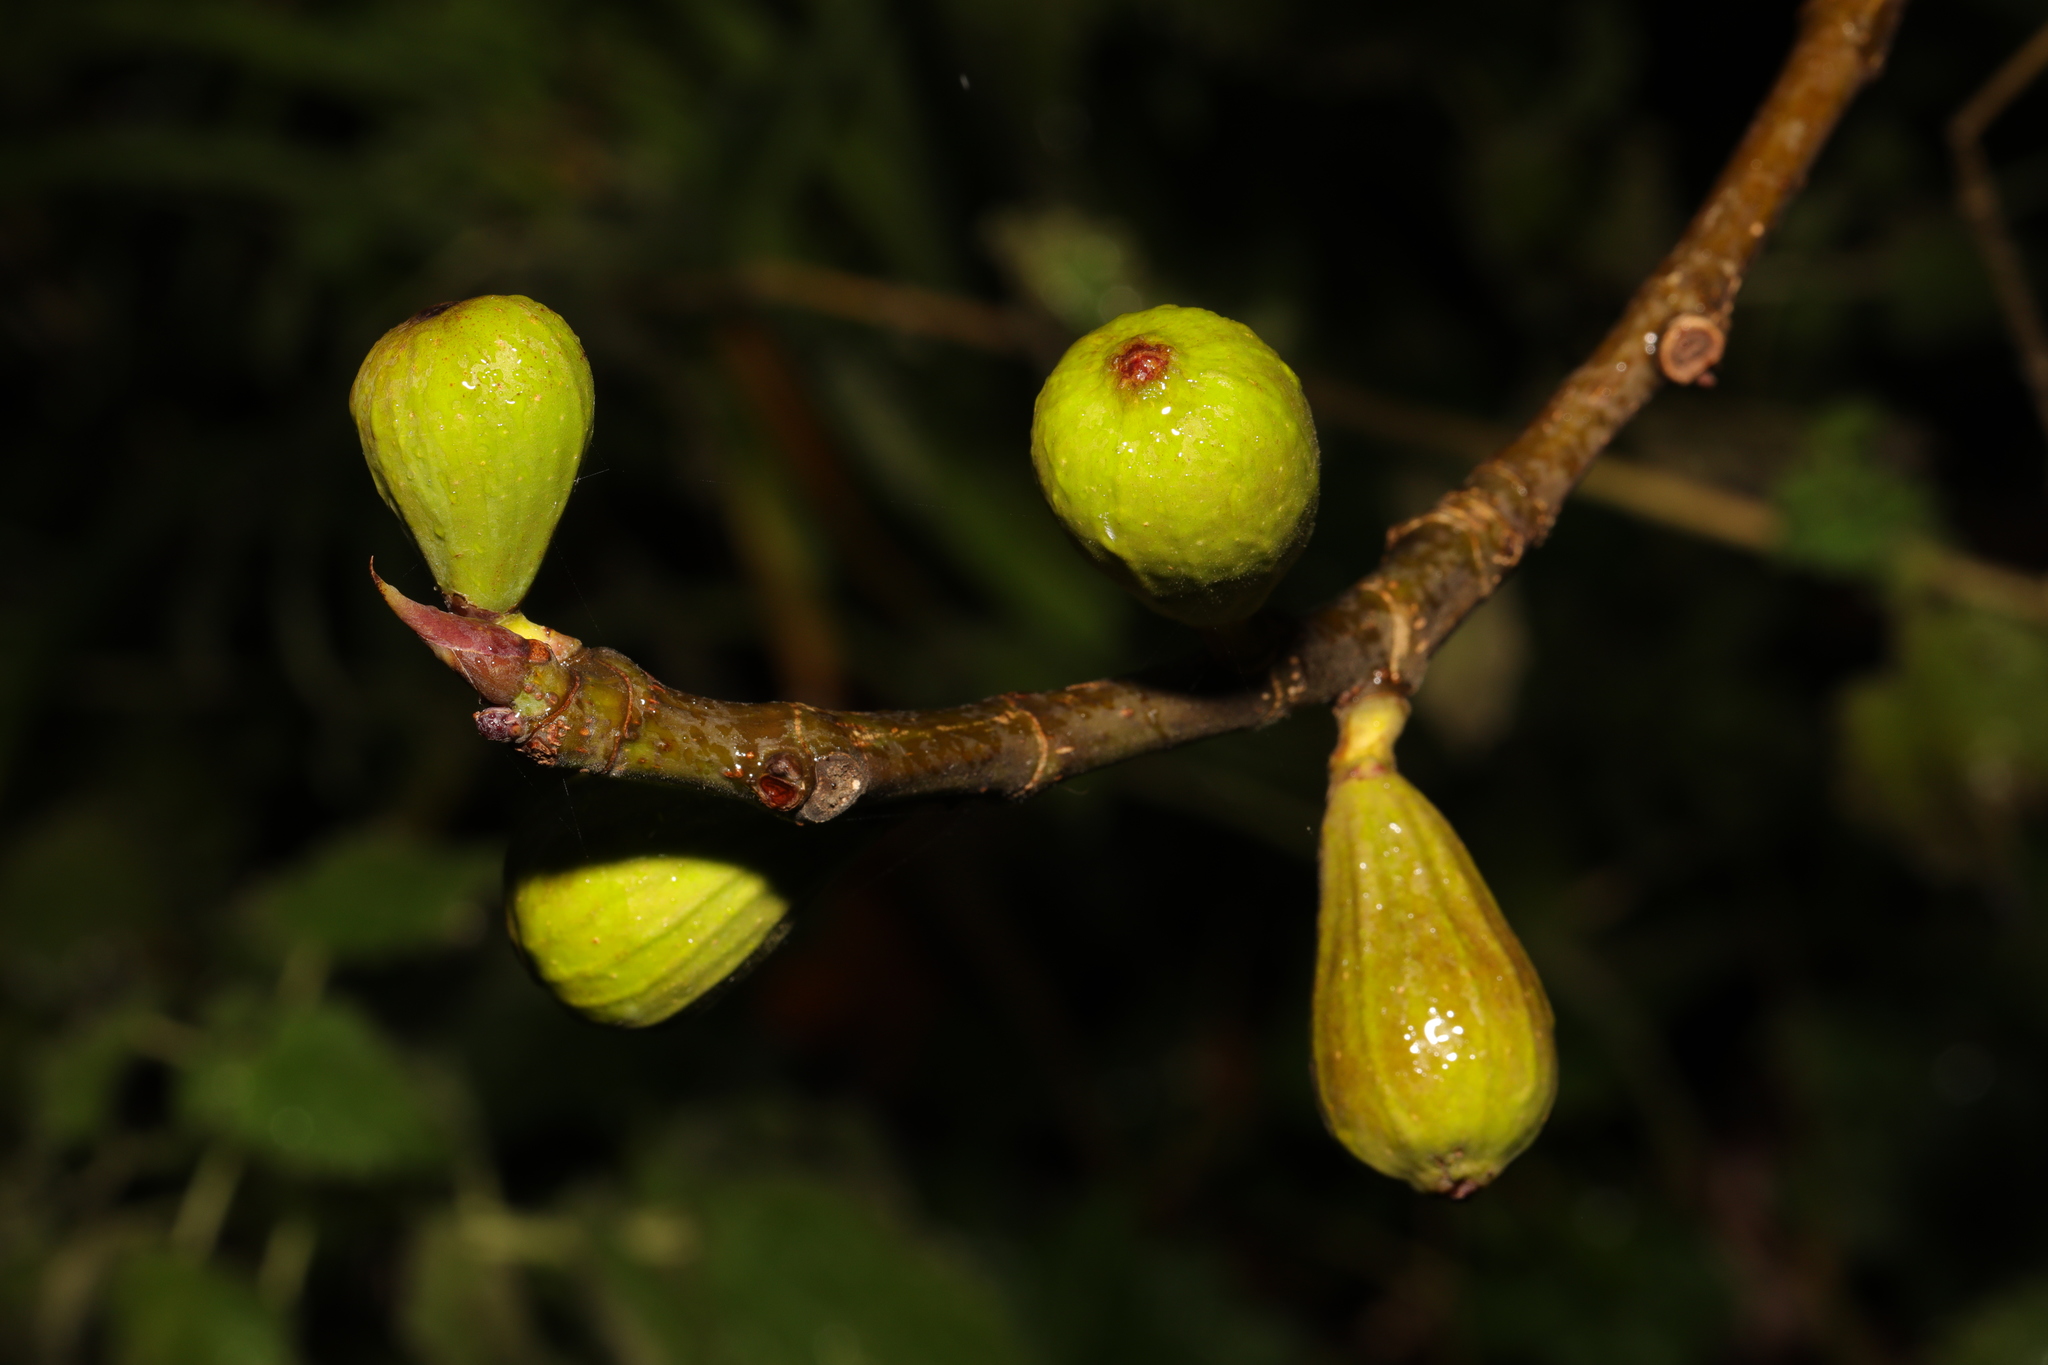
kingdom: Plantae
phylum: Tracheophyta
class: Magnoliopsida
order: Rosales
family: Moraceae
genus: Ficus
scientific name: Ficus carica
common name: Fig
